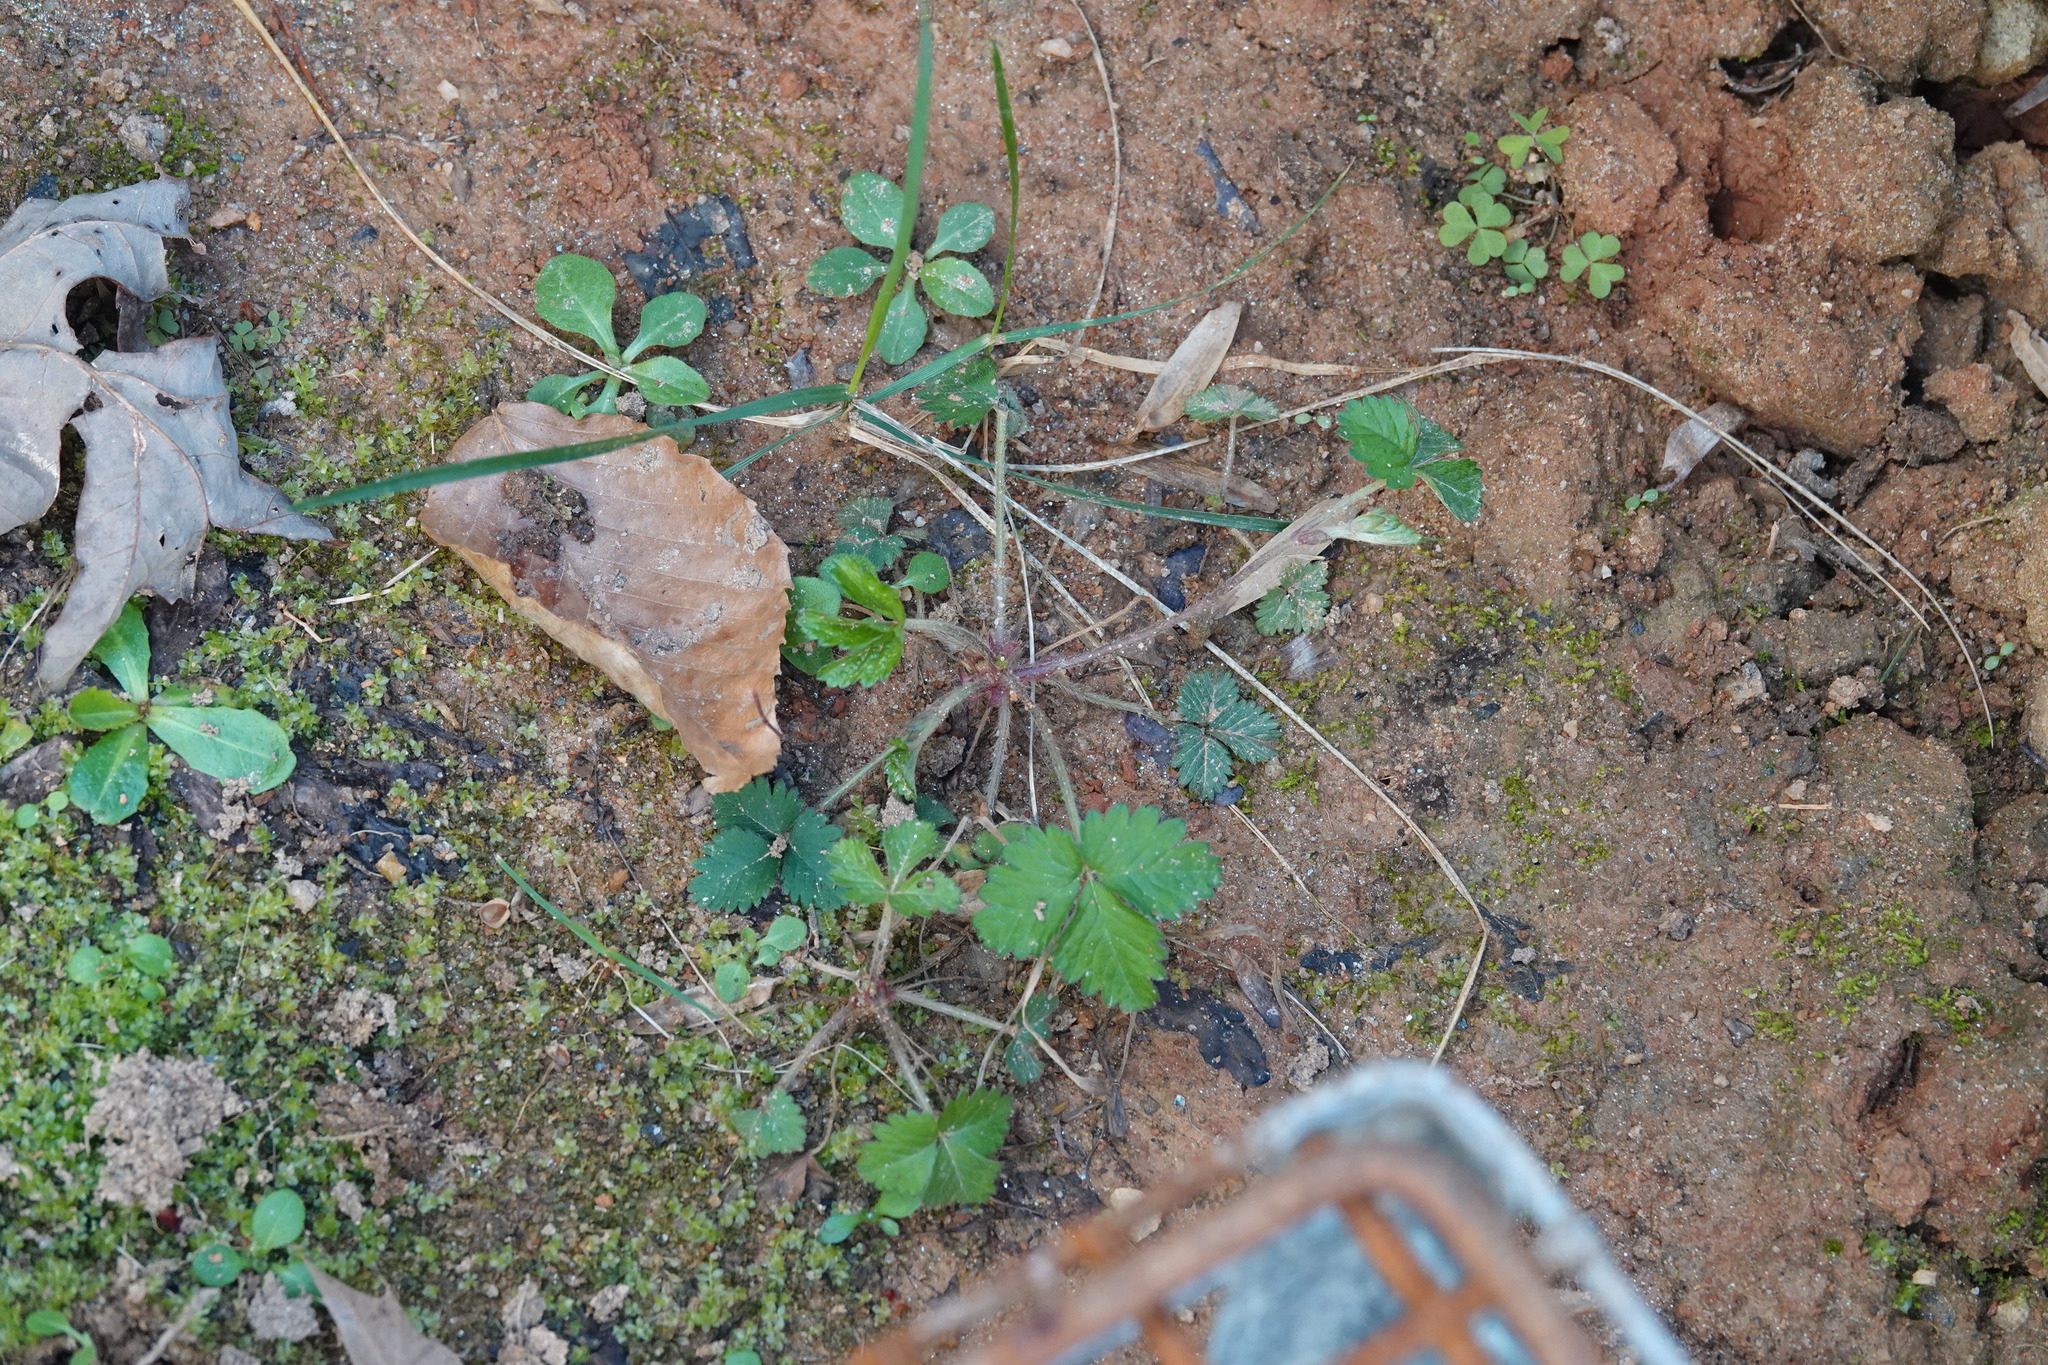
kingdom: Plantae
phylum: Tracheophyta
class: Magnoliopsida
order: Rosales
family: Rosaceae
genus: Potentilla
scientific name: Potentilla indica
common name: Yellow-flowered strawberry
